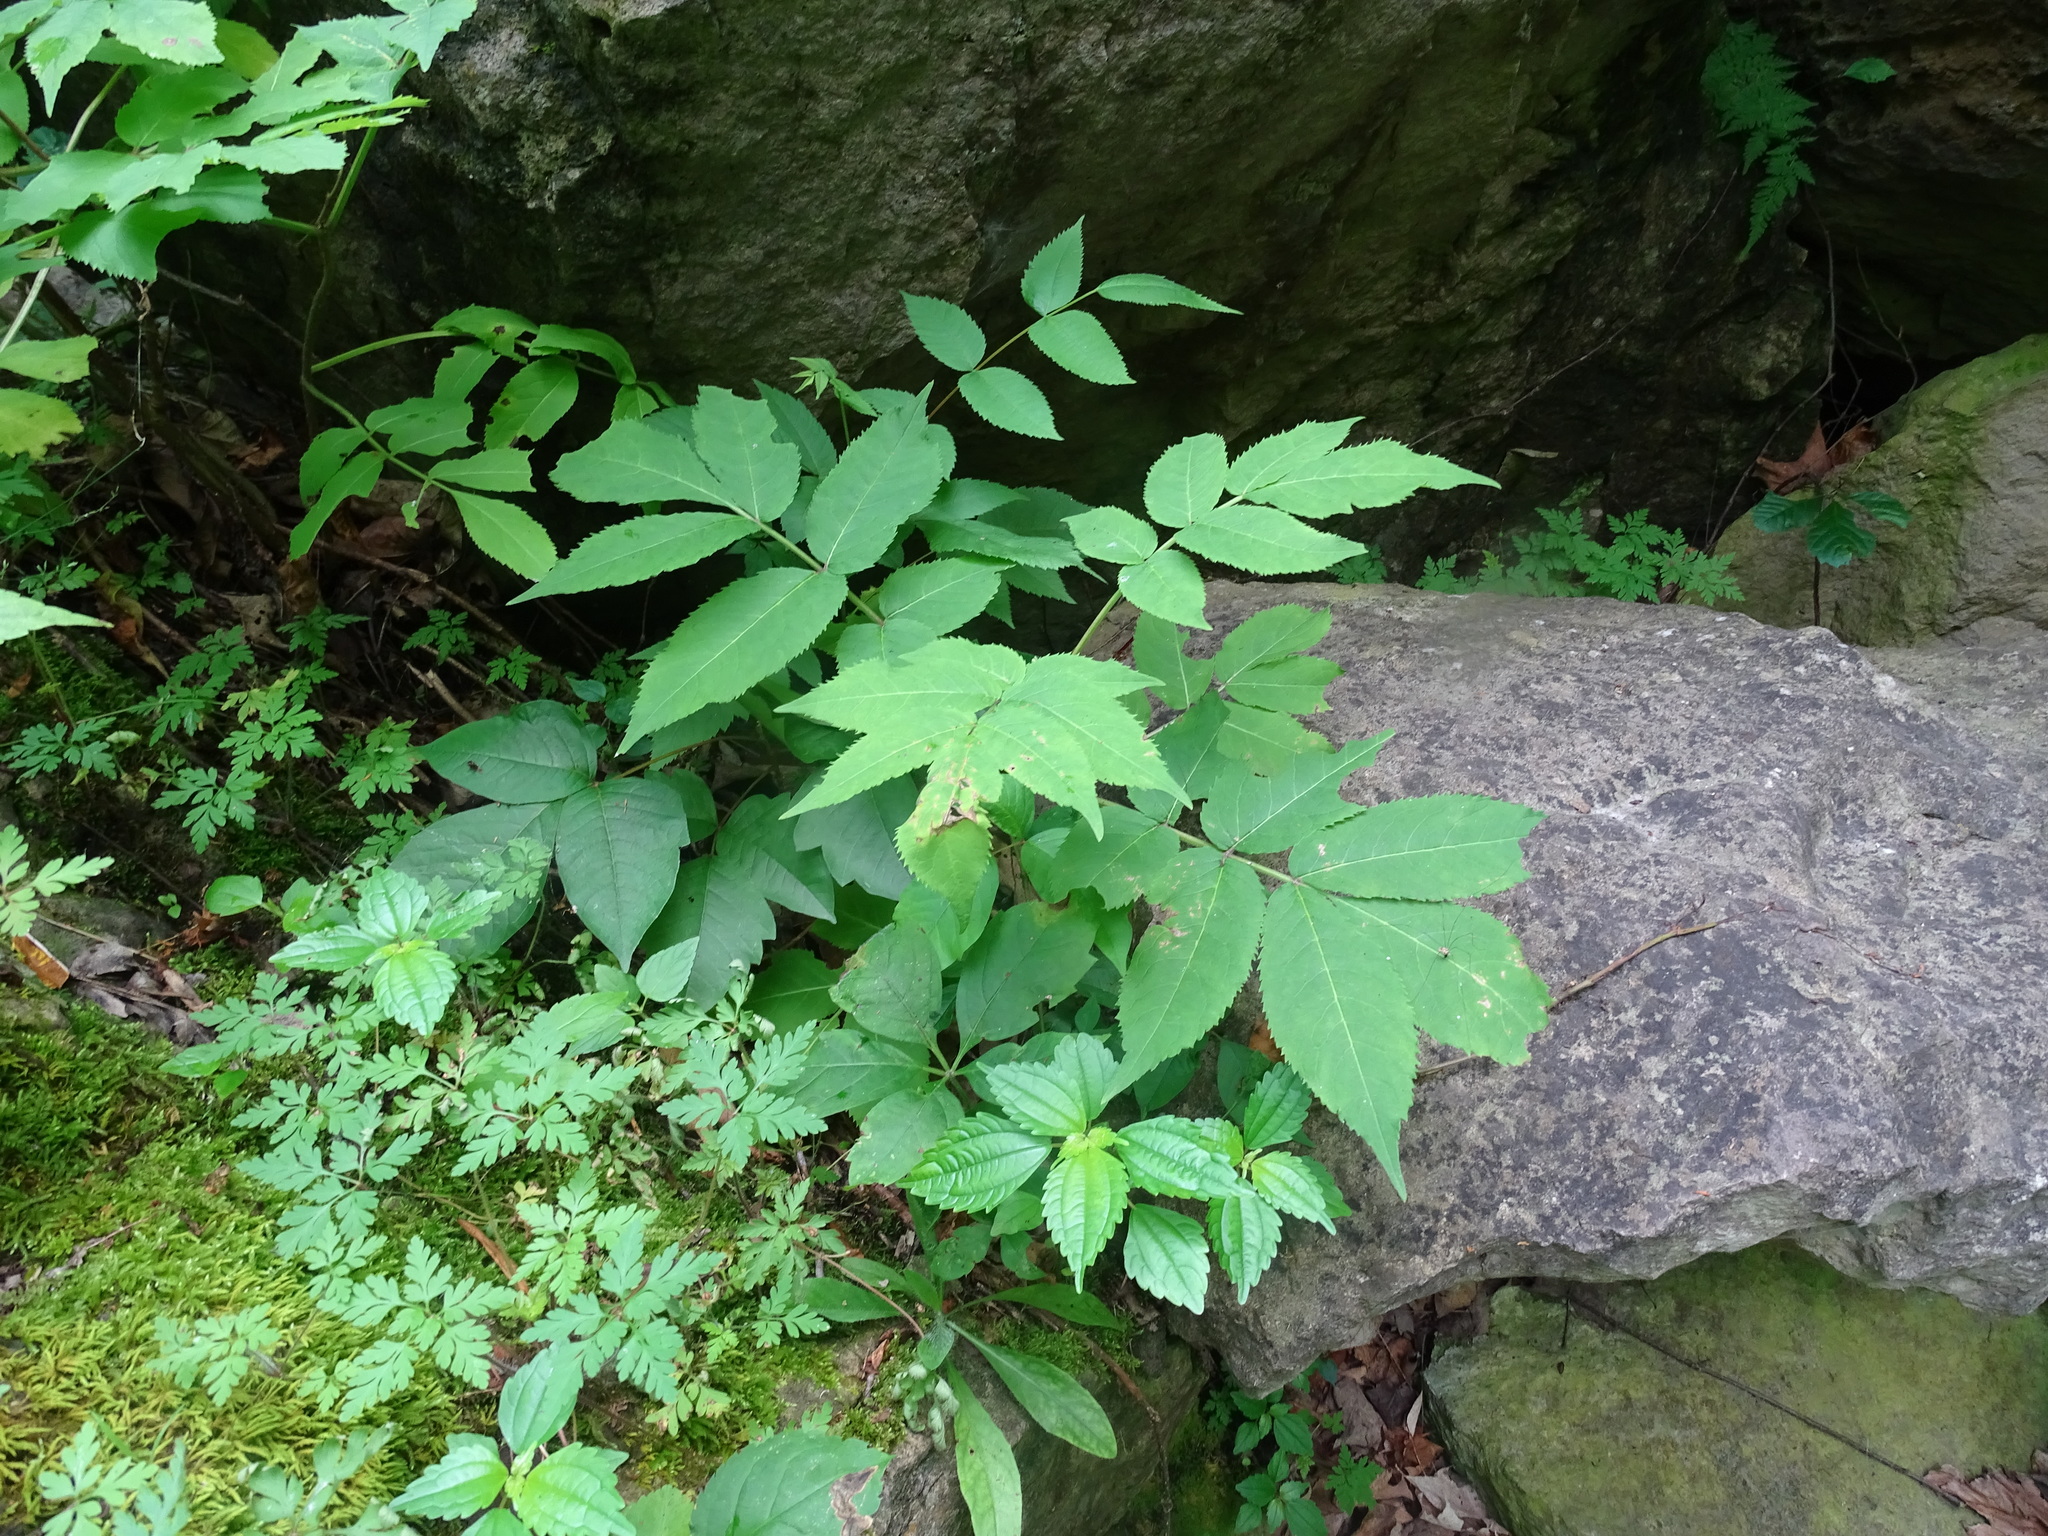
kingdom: Plantae
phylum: Tracheophyta
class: Magnoliopsida
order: Dipsacales
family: Viburnaceae
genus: Sambucus
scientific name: Sambucus racemosa
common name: Red-berried elder
